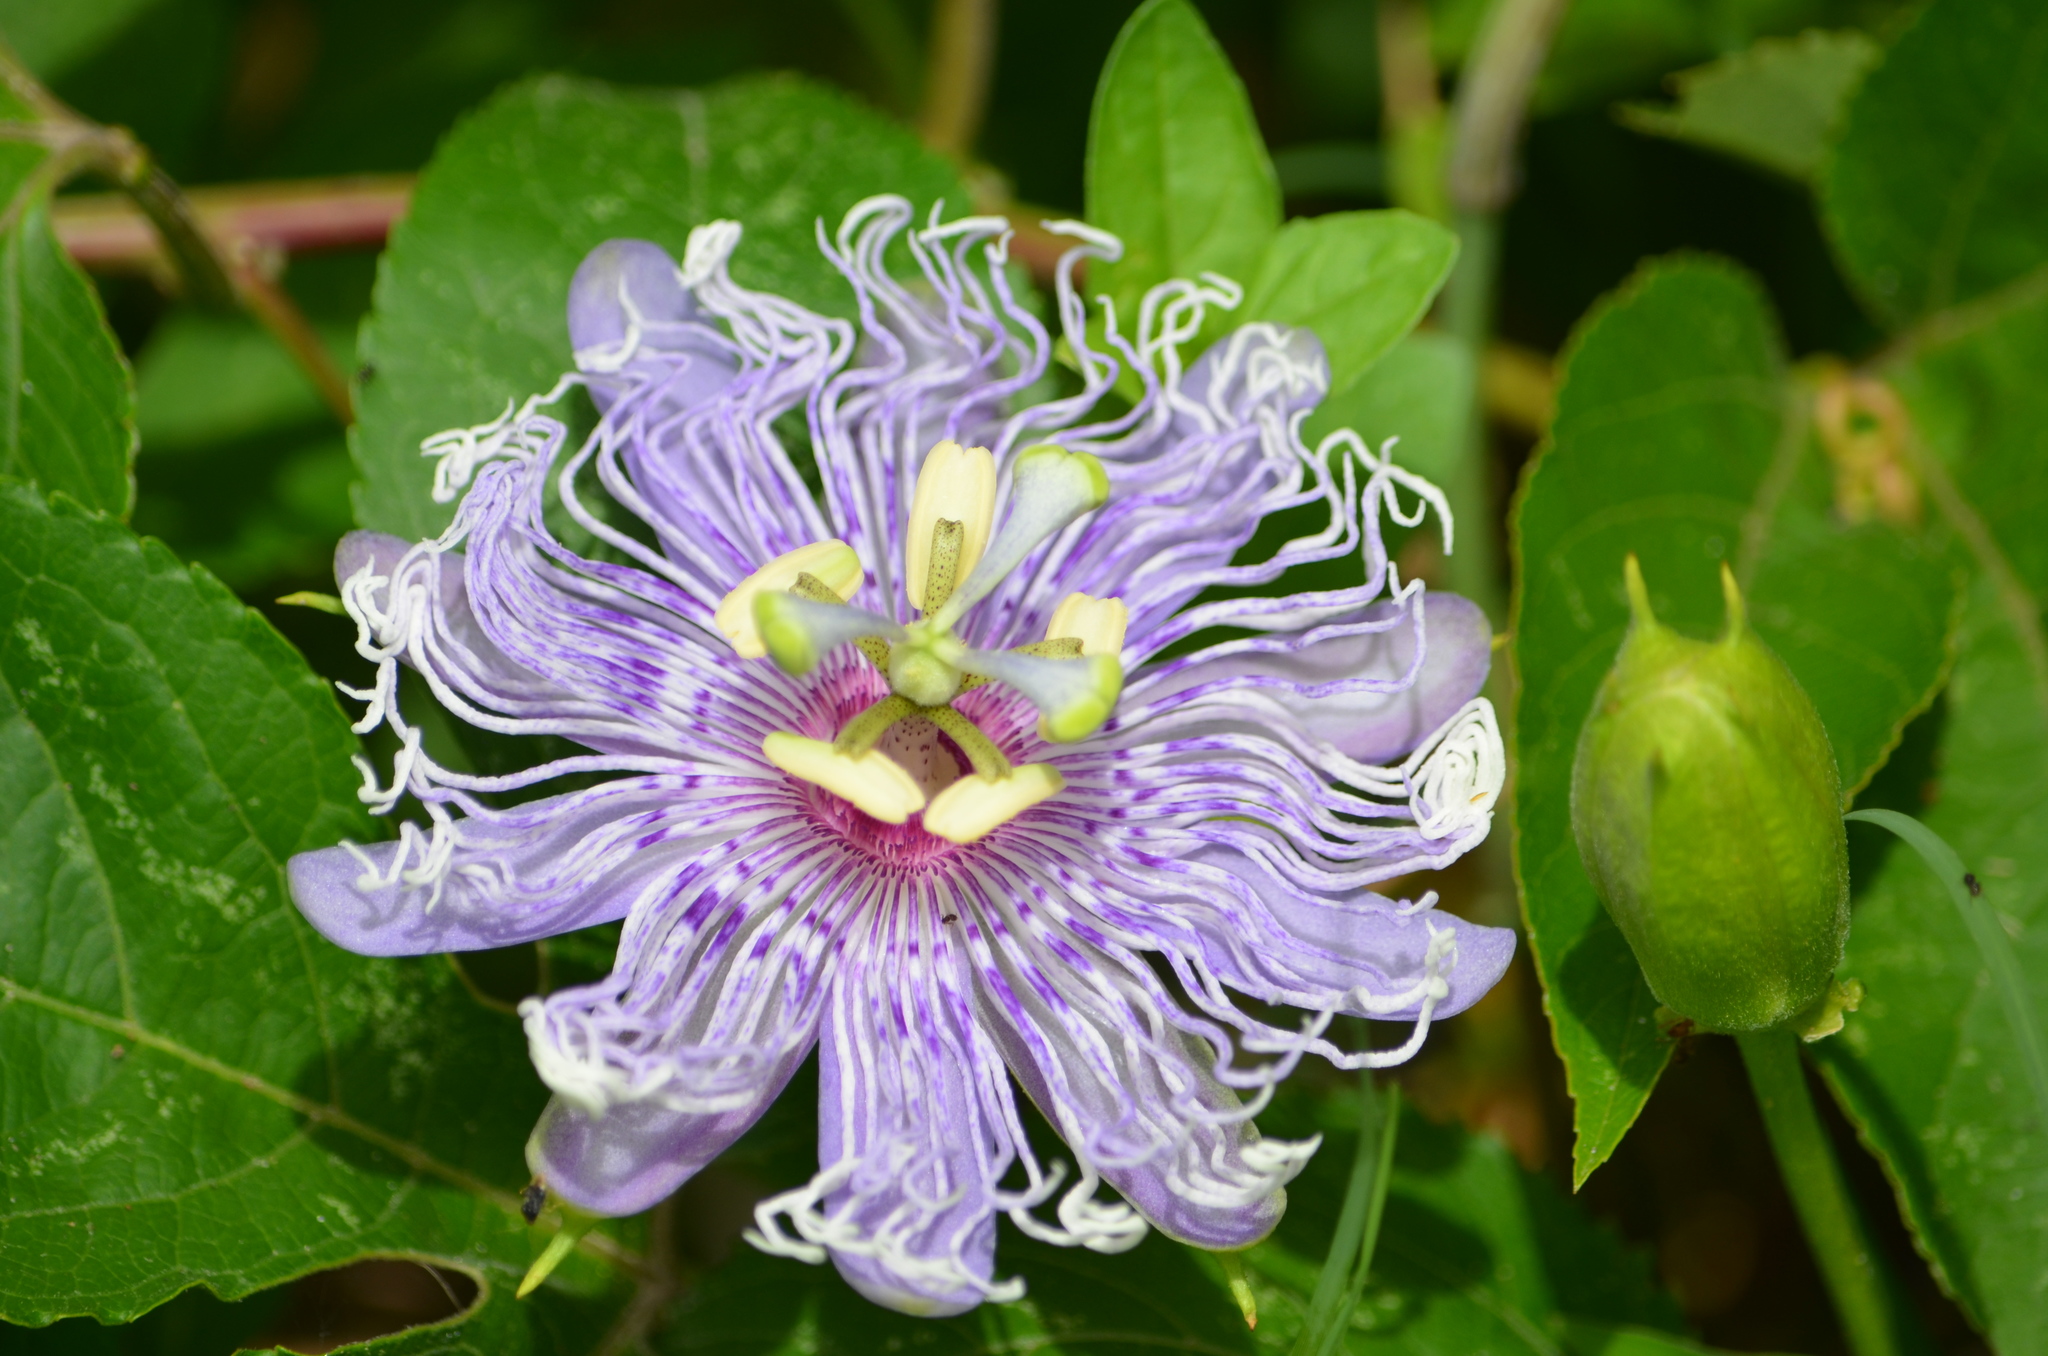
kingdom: Plantae
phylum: Tracheophyta
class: Magnoliopsida
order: Malpighiales
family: Passifloraceae
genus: Passiflora
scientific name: Passiflora incarnata
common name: Apricot-vine
